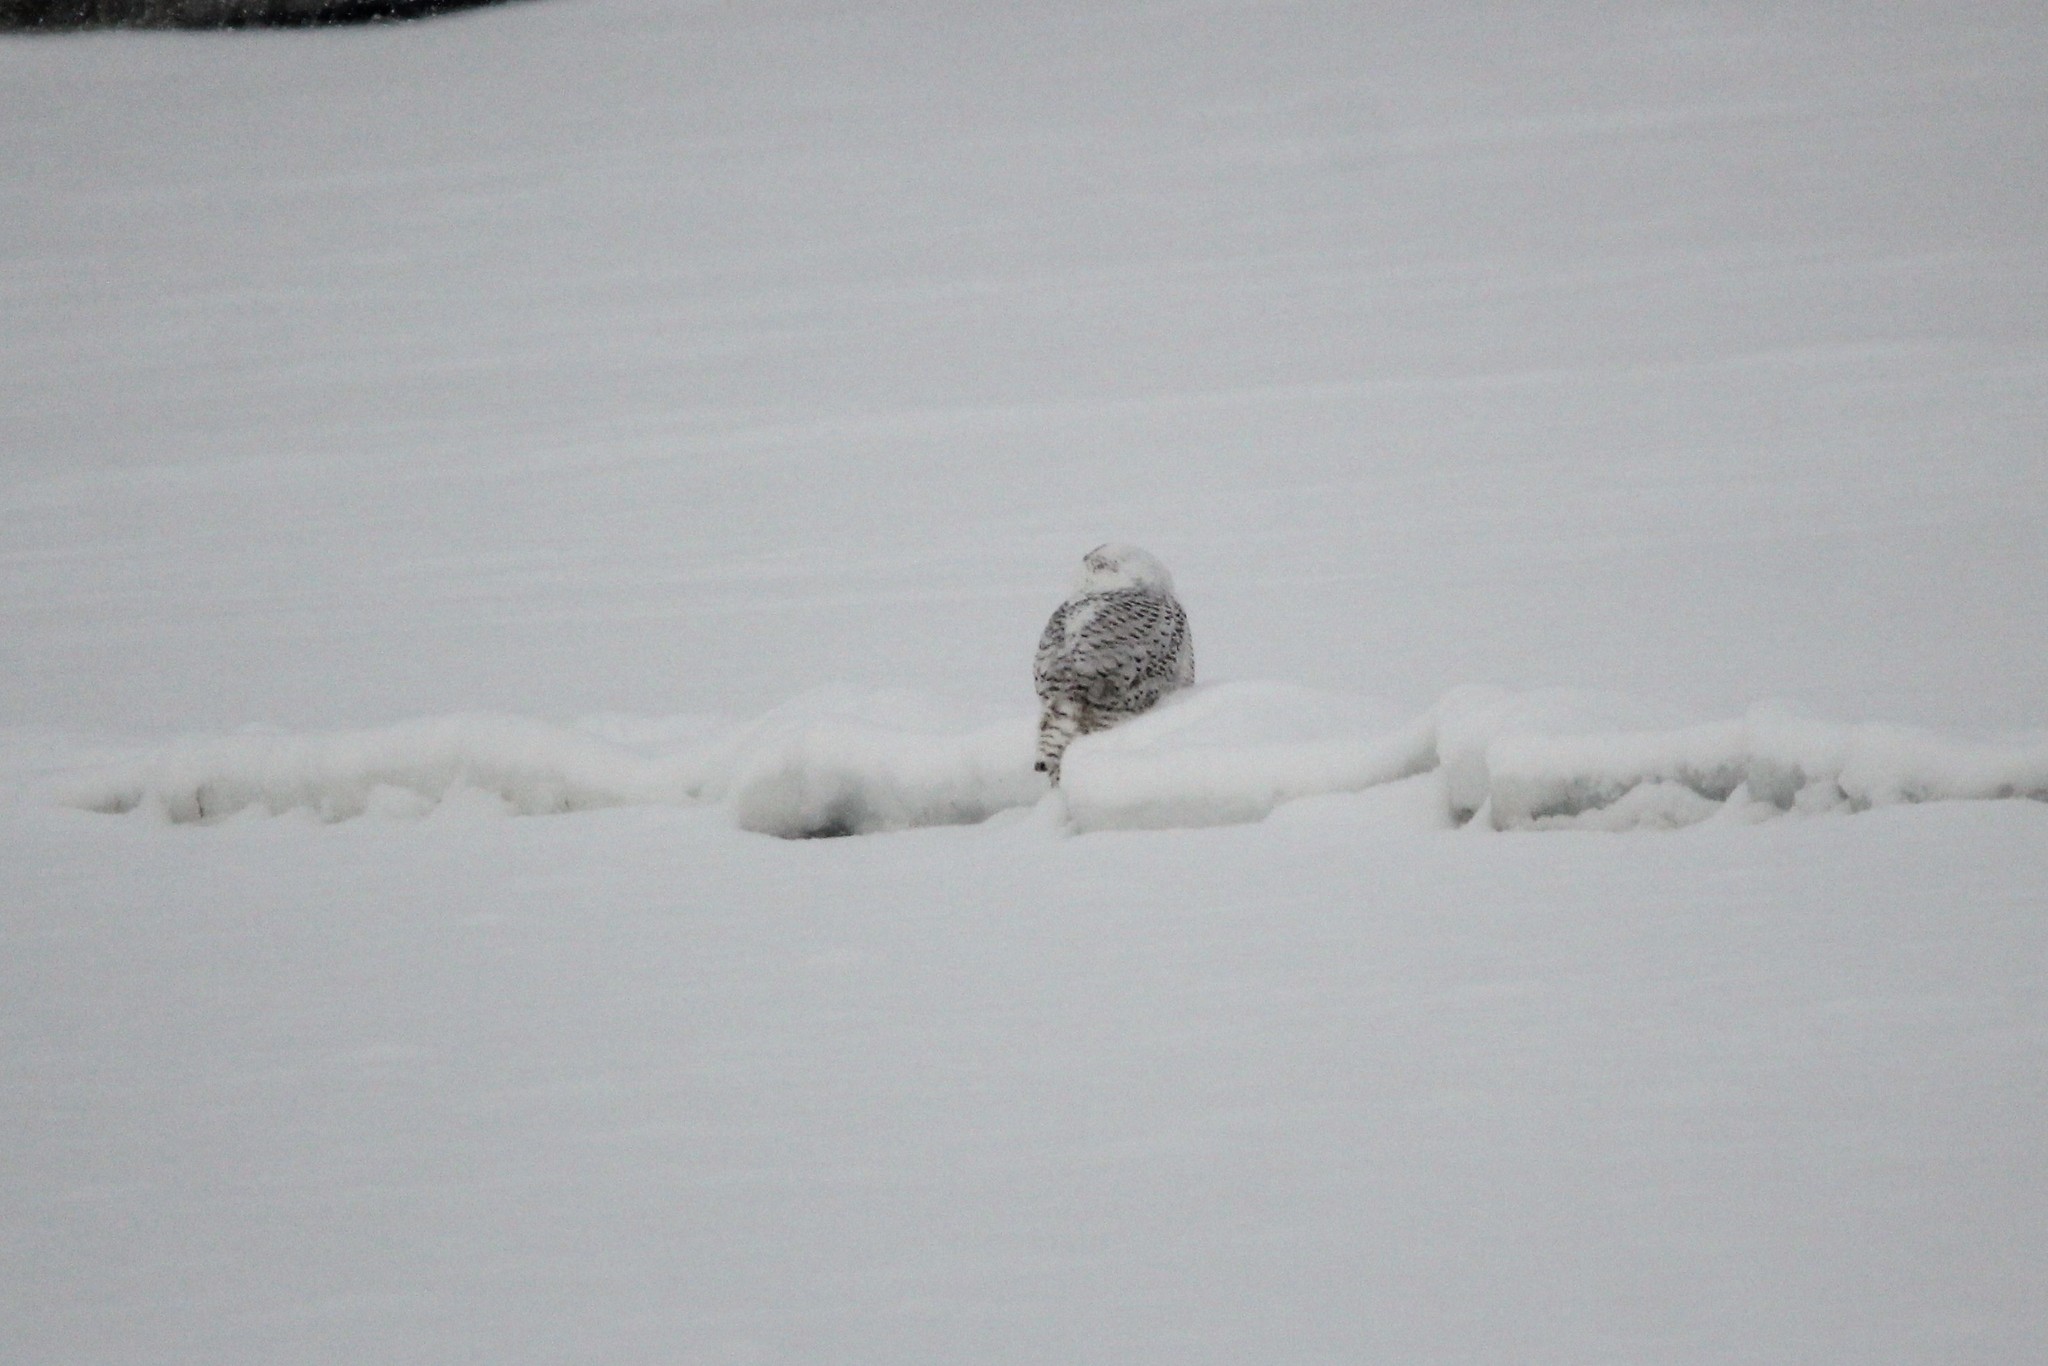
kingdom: Animalia
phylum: Chordata
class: Aves
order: Strigiformes
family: Strigidae
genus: Bubo
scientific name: Bubo scandiacus
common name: Snowy owl
